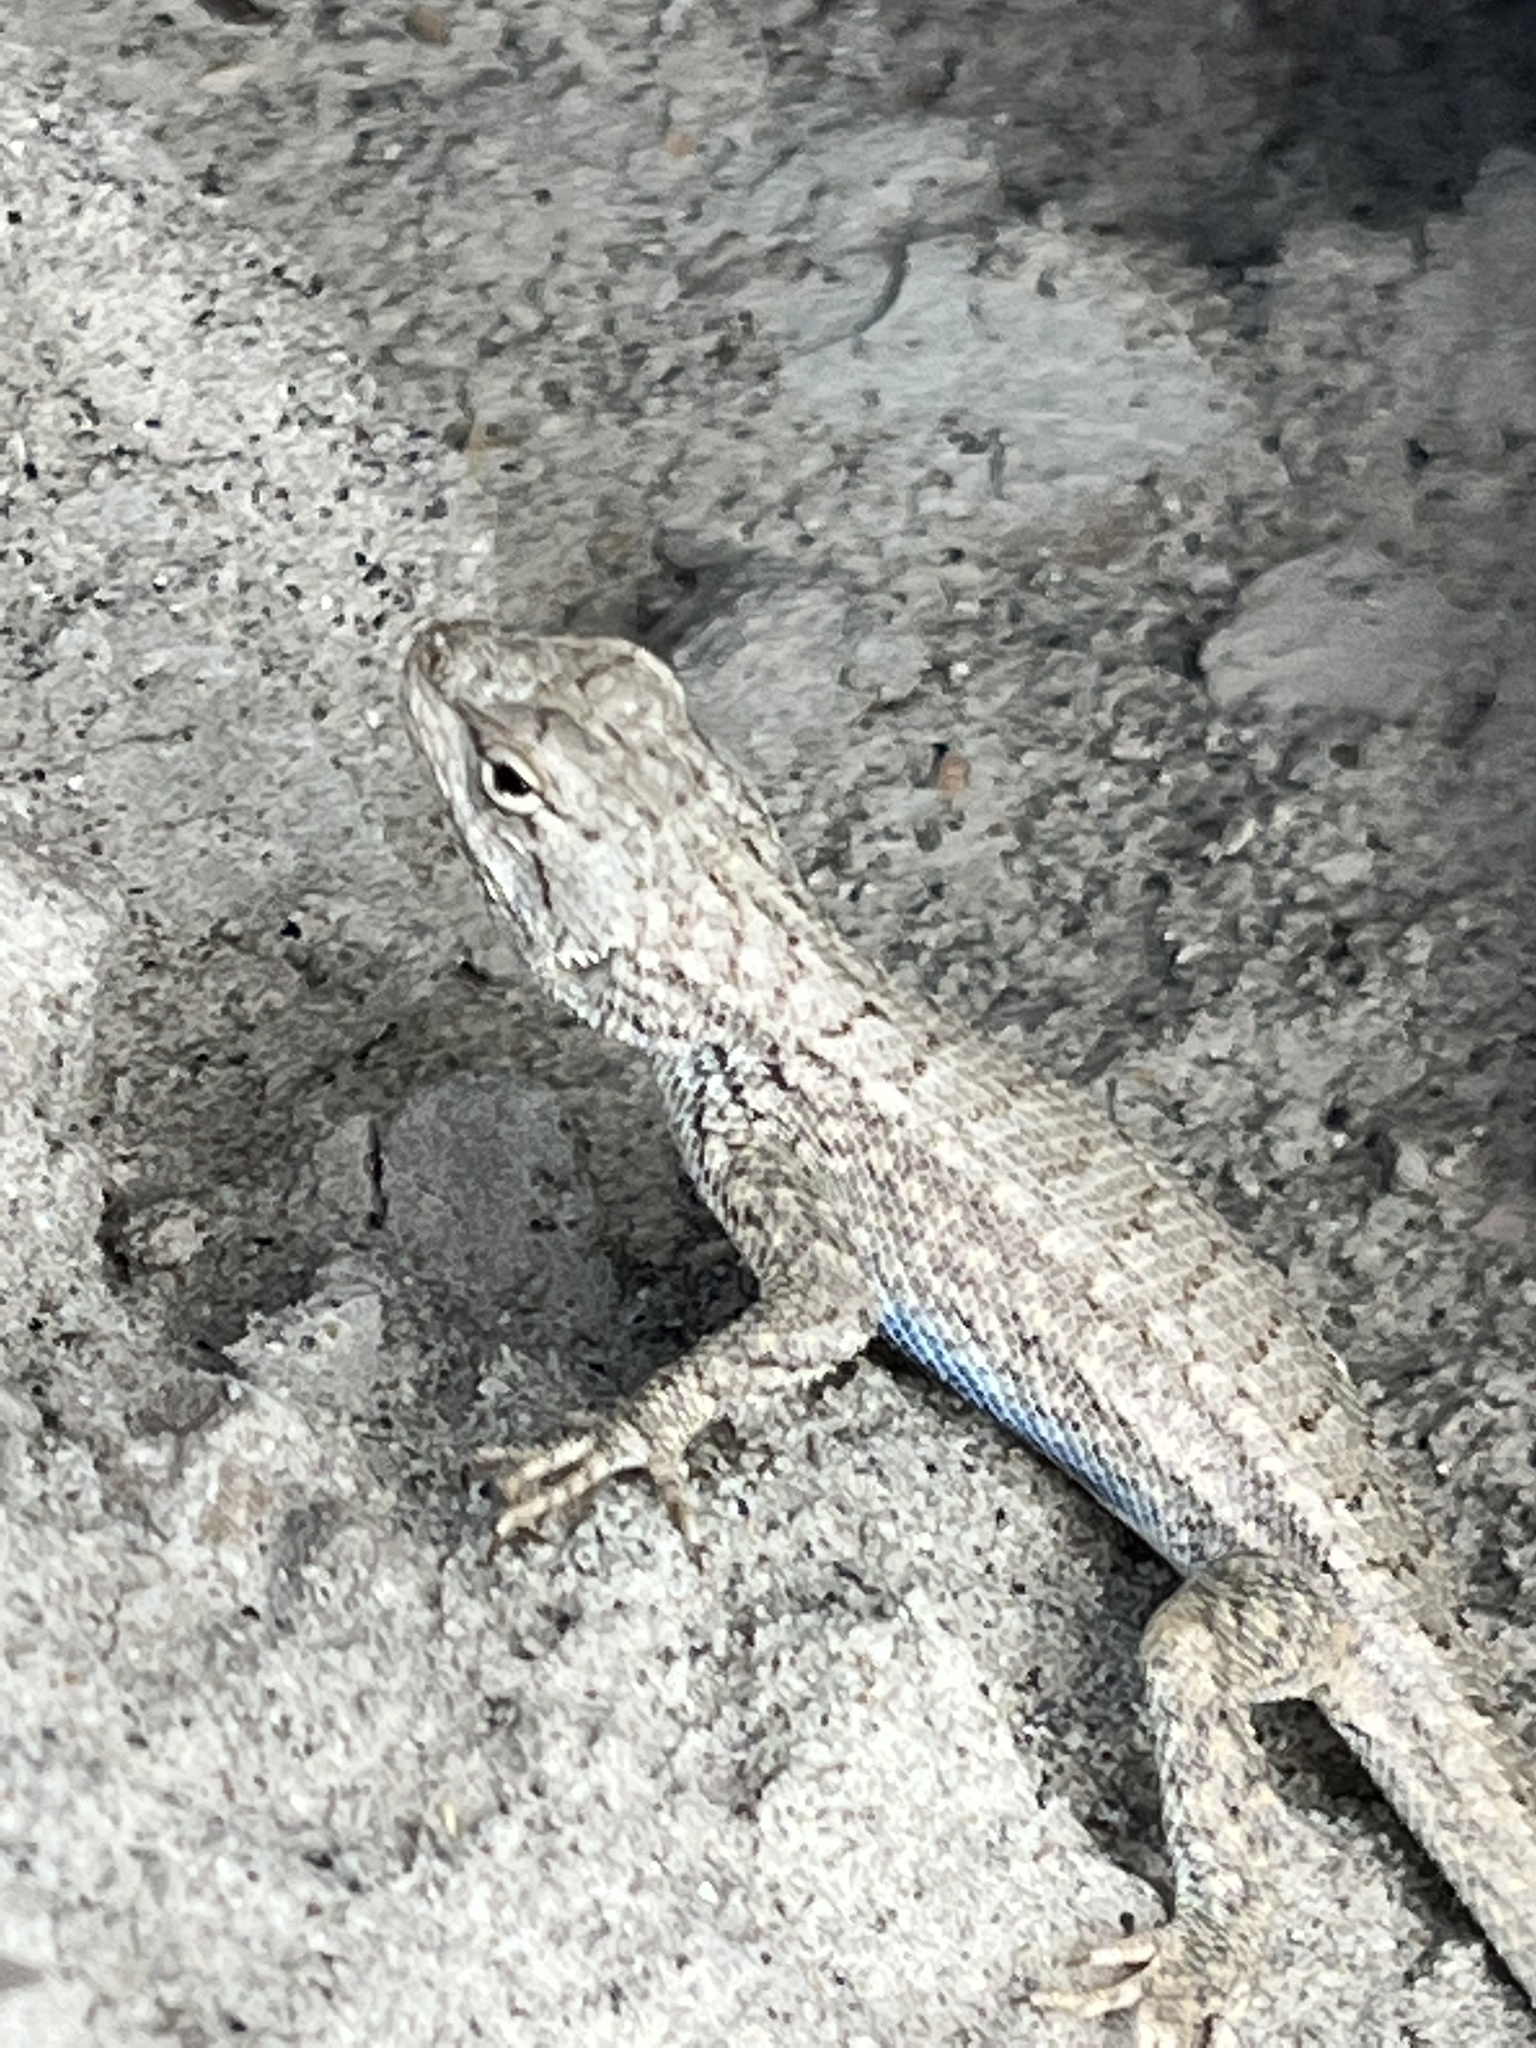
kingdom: Animalia
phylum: Chordata
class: Squamata
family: Phrynosomatidae
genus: Sceloporus
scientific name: Sceloporus tristichus
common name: Plateau fence lizard
